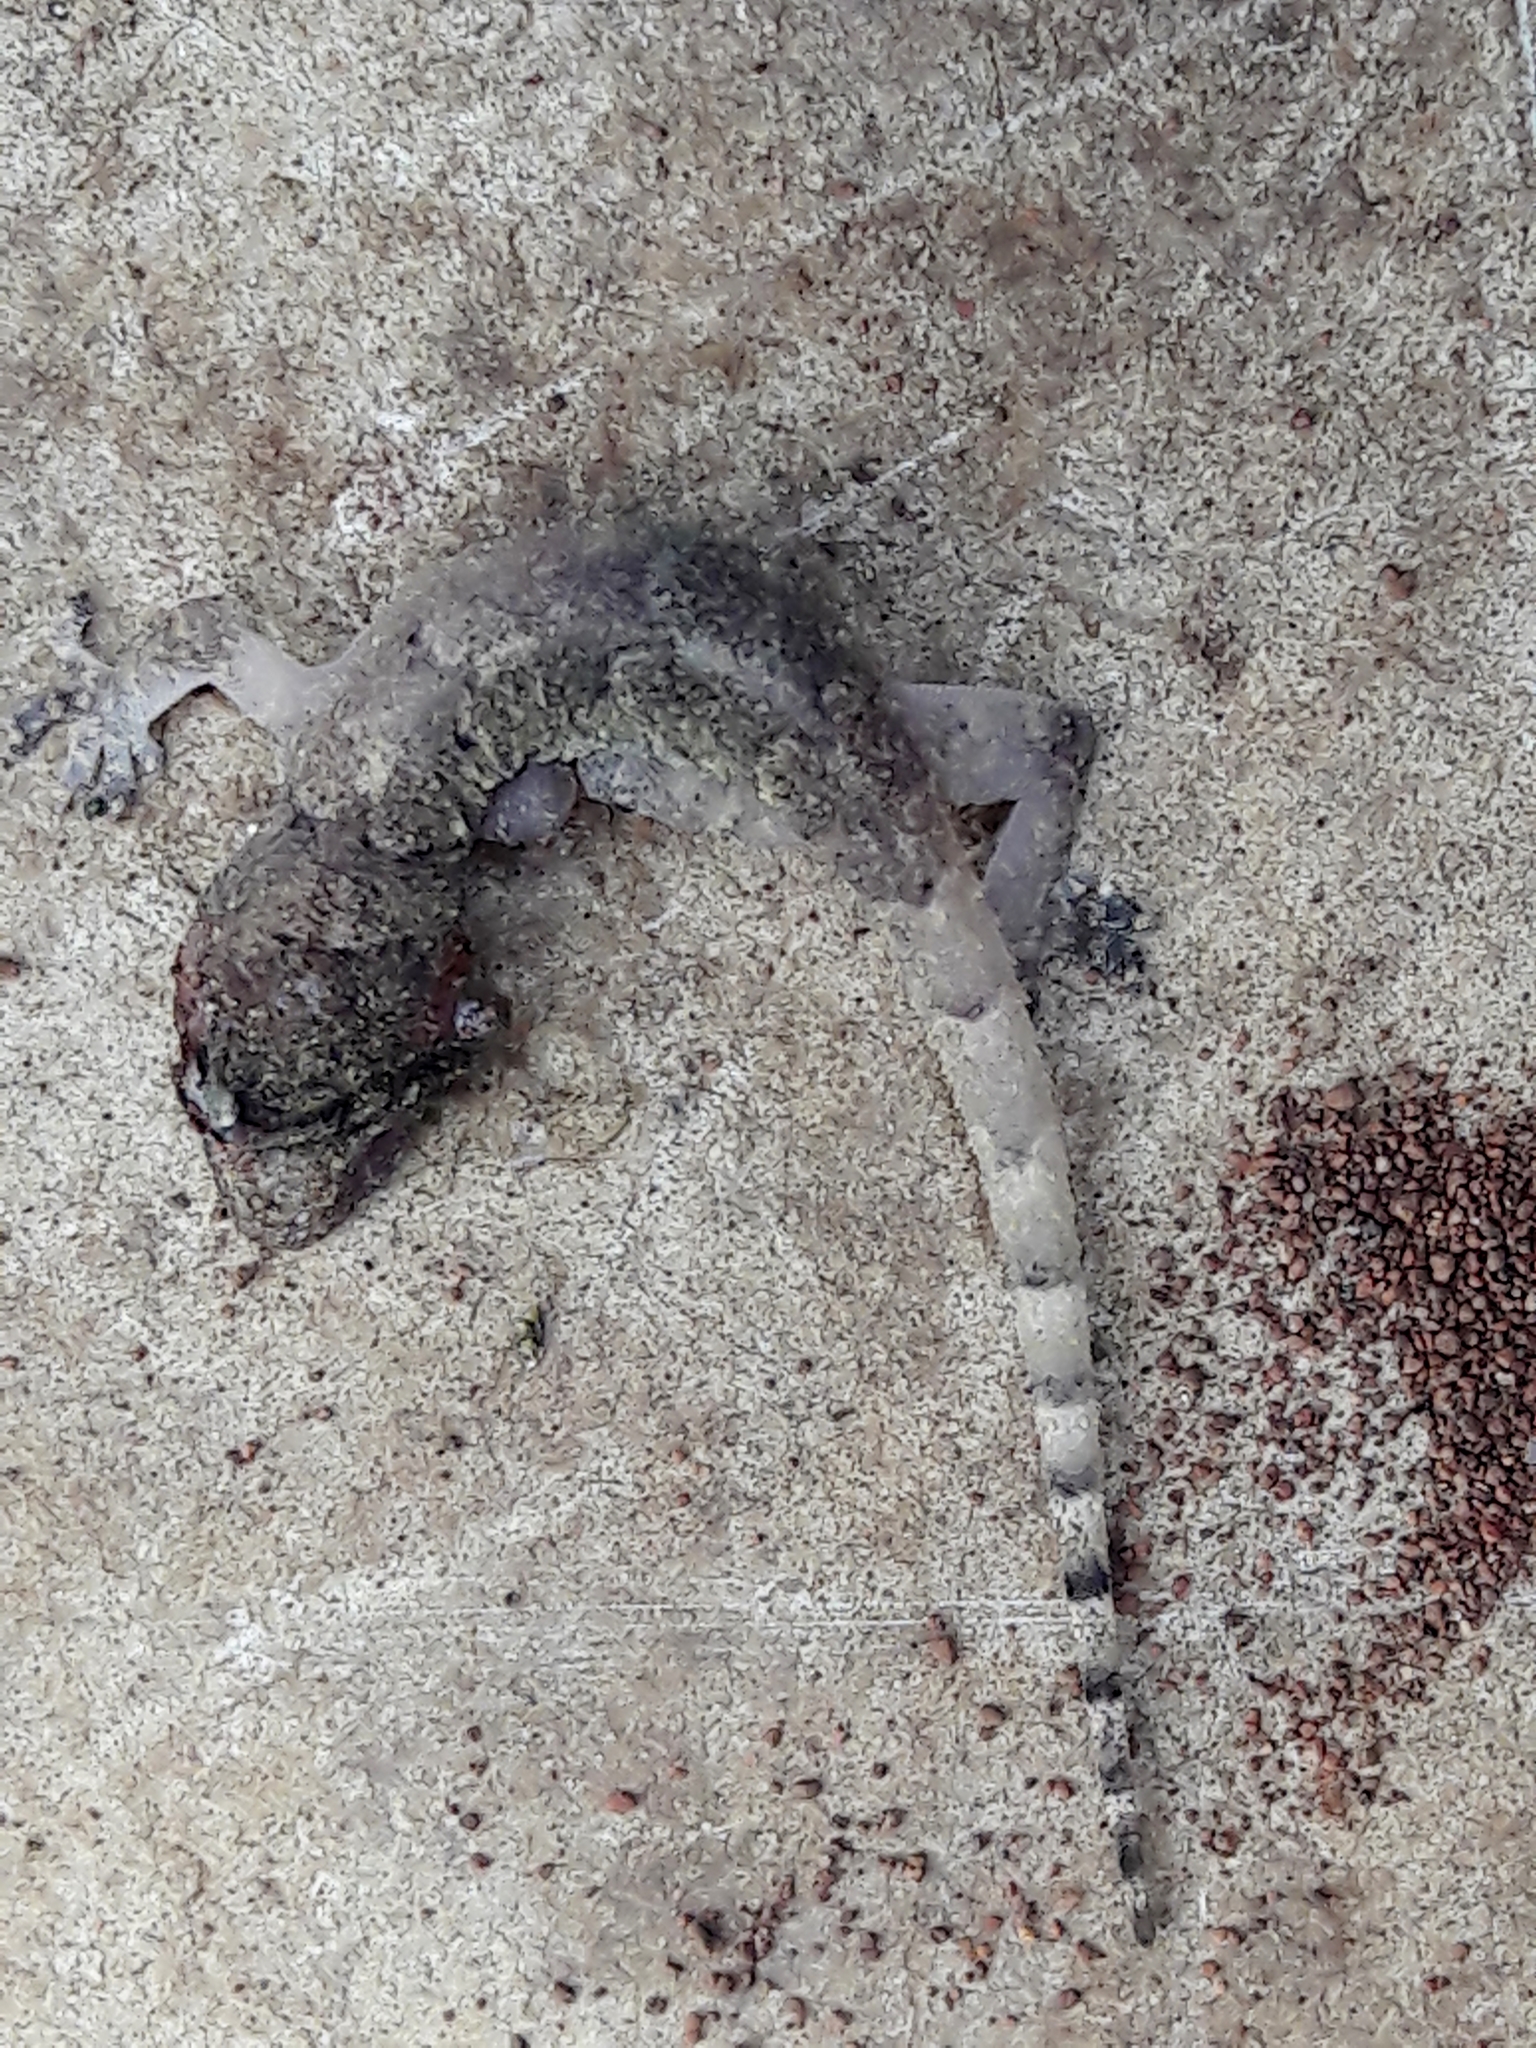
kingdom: Animalia
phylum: Chordata
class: Squamata
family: Gekkonidae
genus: Hemidactylus
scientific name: Hemidactylus mabouia
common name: House gecko
